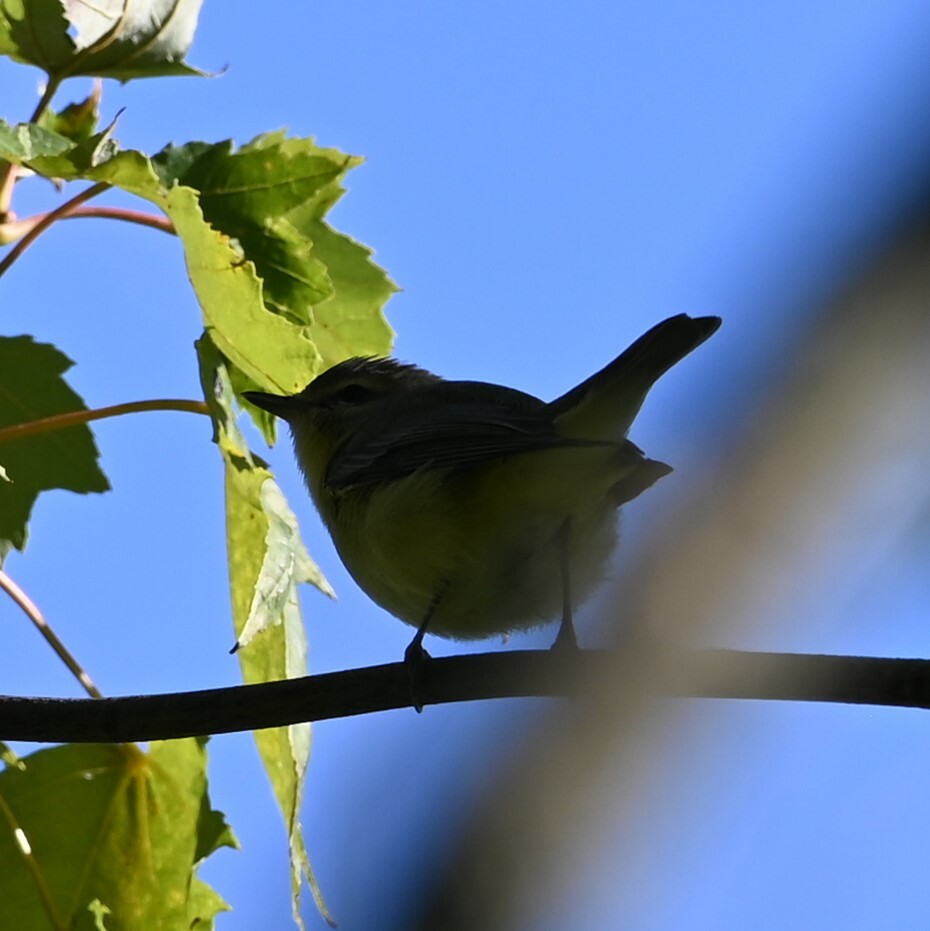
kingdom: Animalia
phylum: Chordata
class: Aves
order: Passeriformes
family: Vireonidae
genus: Vireo
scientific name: Vireo philadelphicus
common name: Philadelphia vireo
